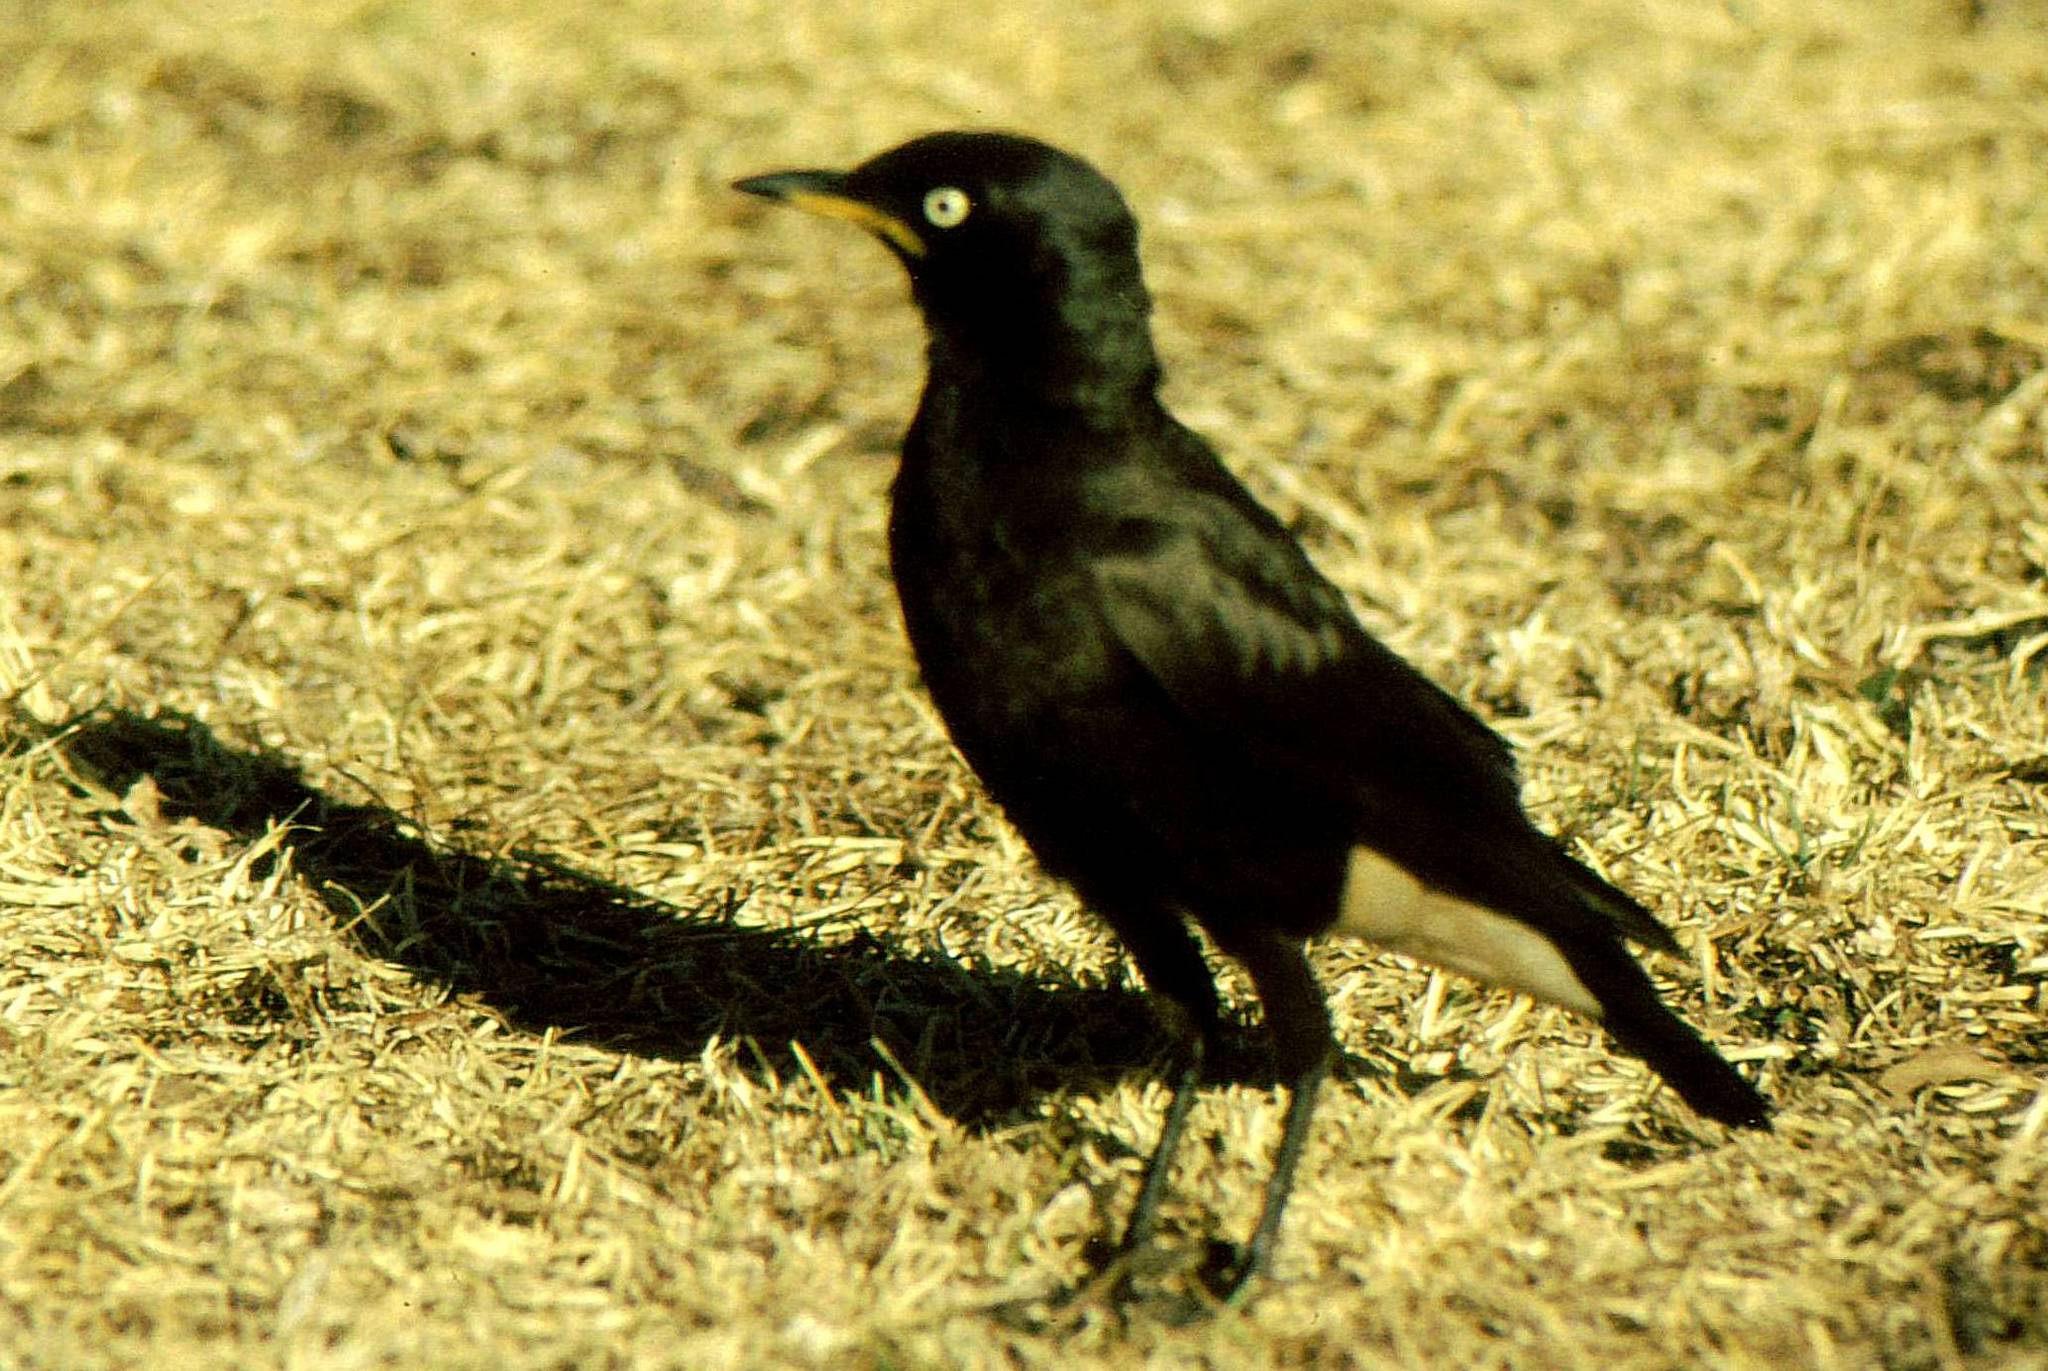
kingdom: Animalia
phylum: Chordata
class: Aves
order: Passeriformes
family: Sturnidae
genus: Lamprotornis
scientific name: Lamprotornis bicolor
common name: Pied starling
